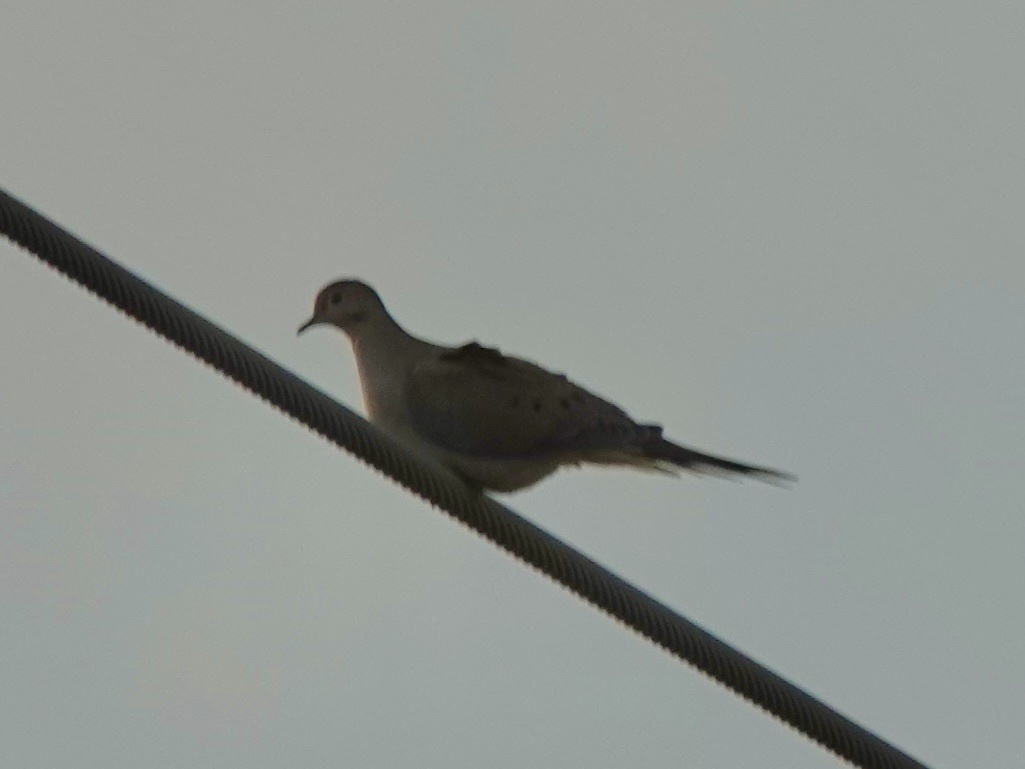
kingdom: Animalia
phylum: Chordata
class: Aves
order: Columbiformes
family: Columbidae
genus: Zenaida
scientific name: Zenaida macroura
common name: Mourning dove
